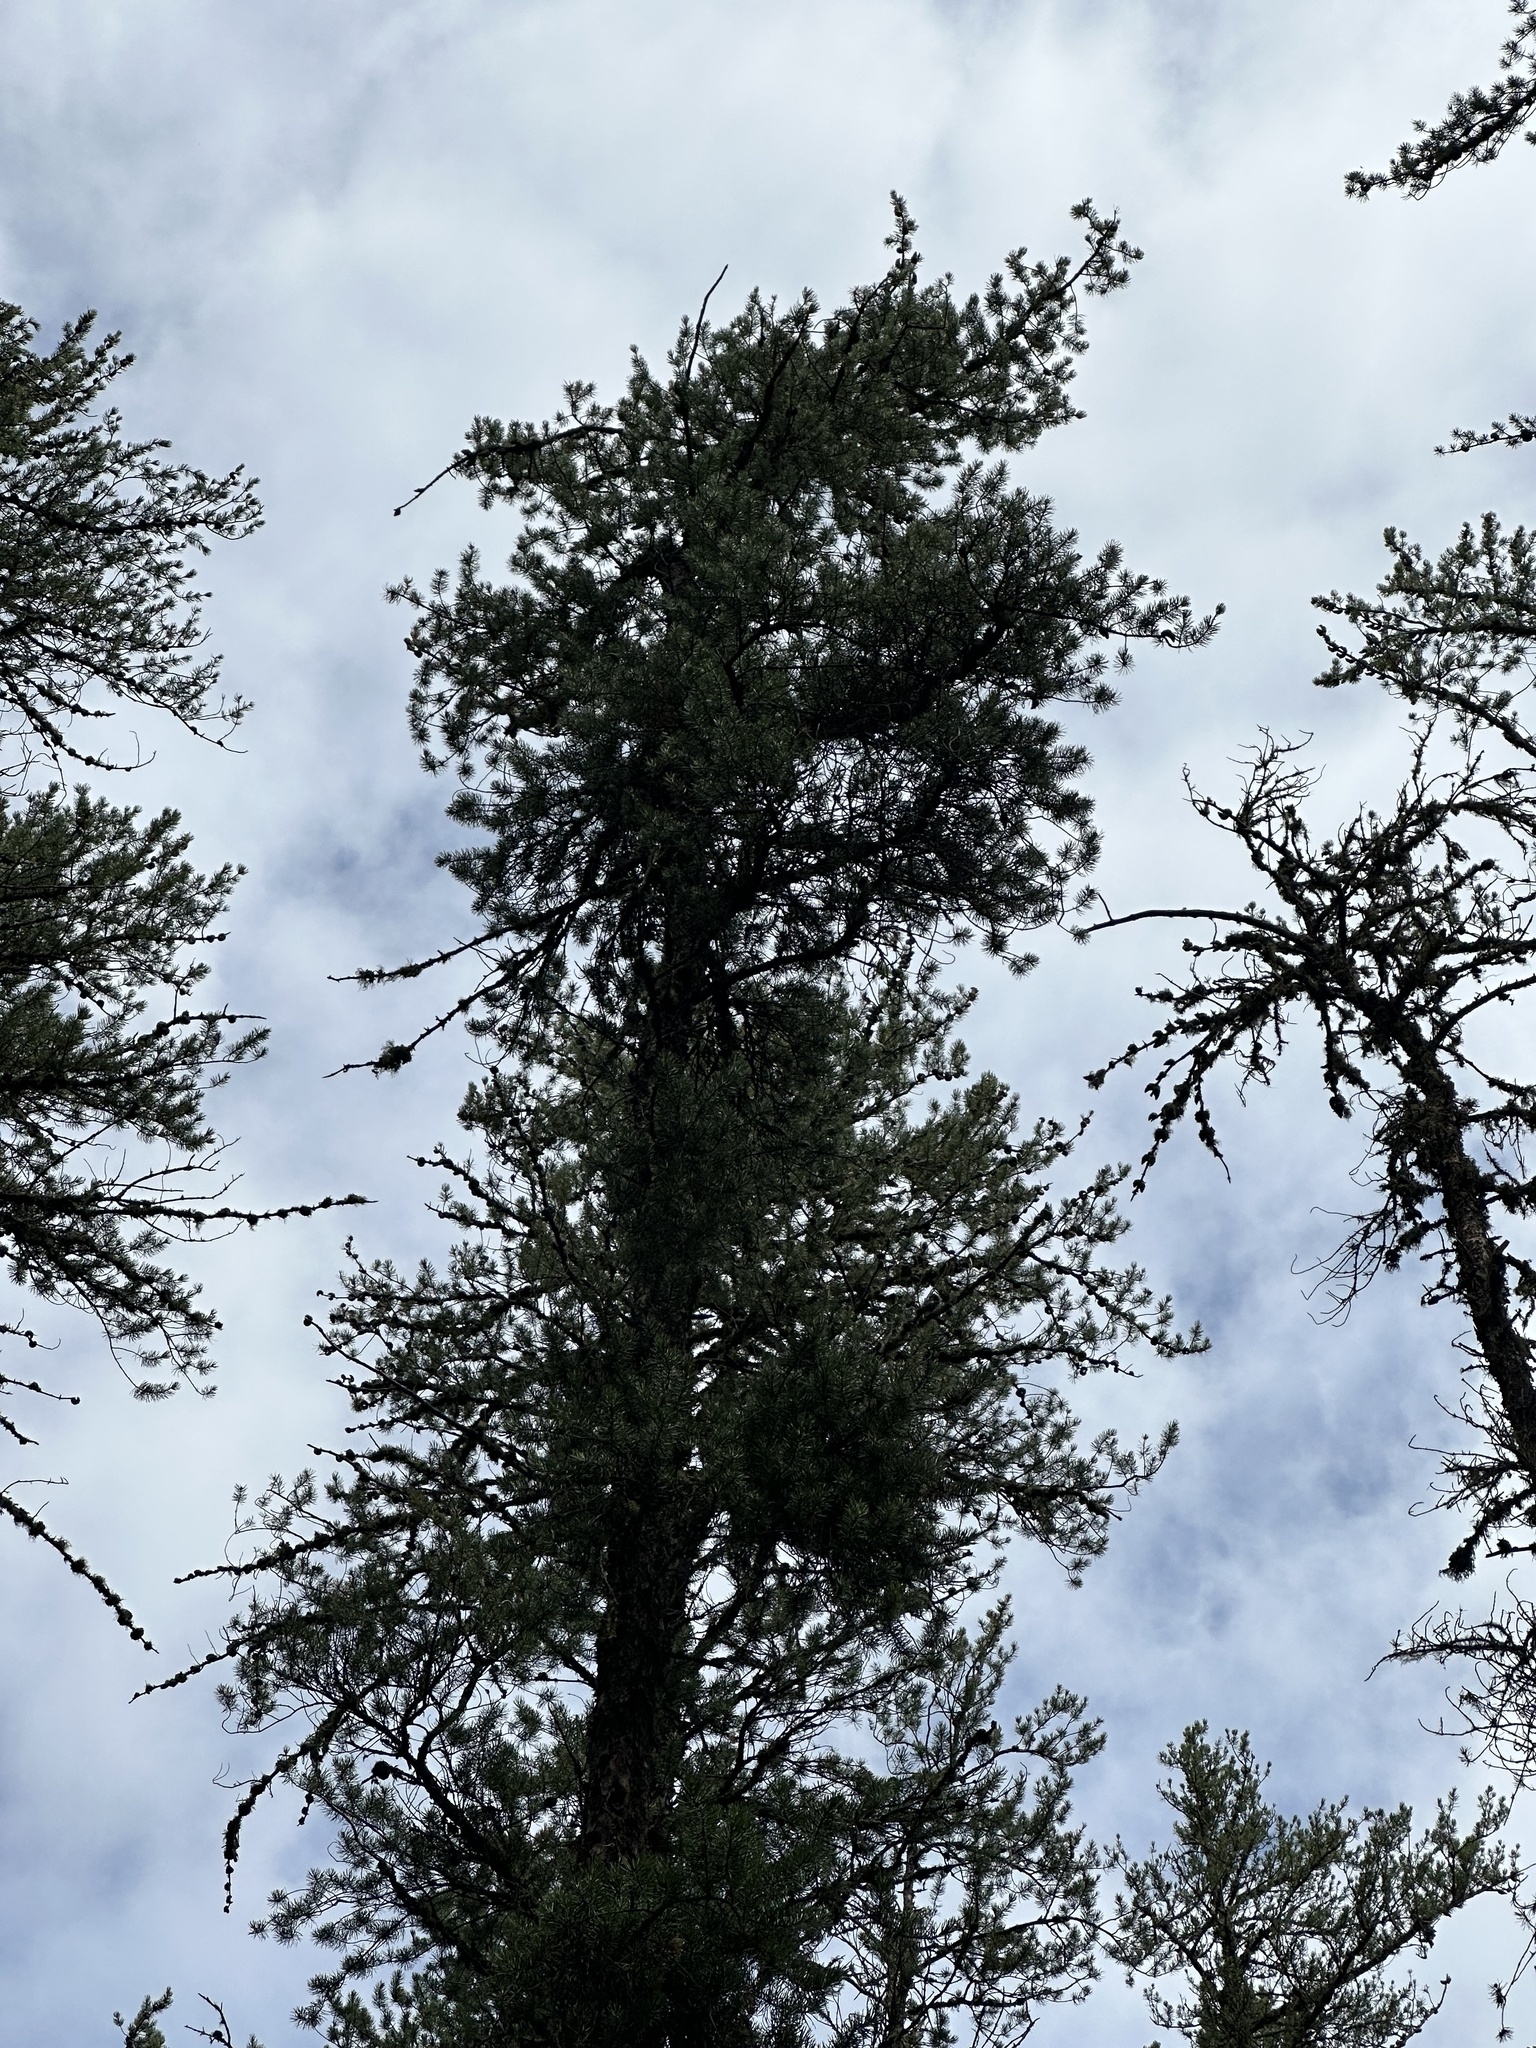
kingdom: Plantae
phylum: Tracheophyta
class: Pinopsida
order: Pinales
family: Pinaceae
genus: Pinus
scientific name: Pinus banksiana
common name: Jack pine
